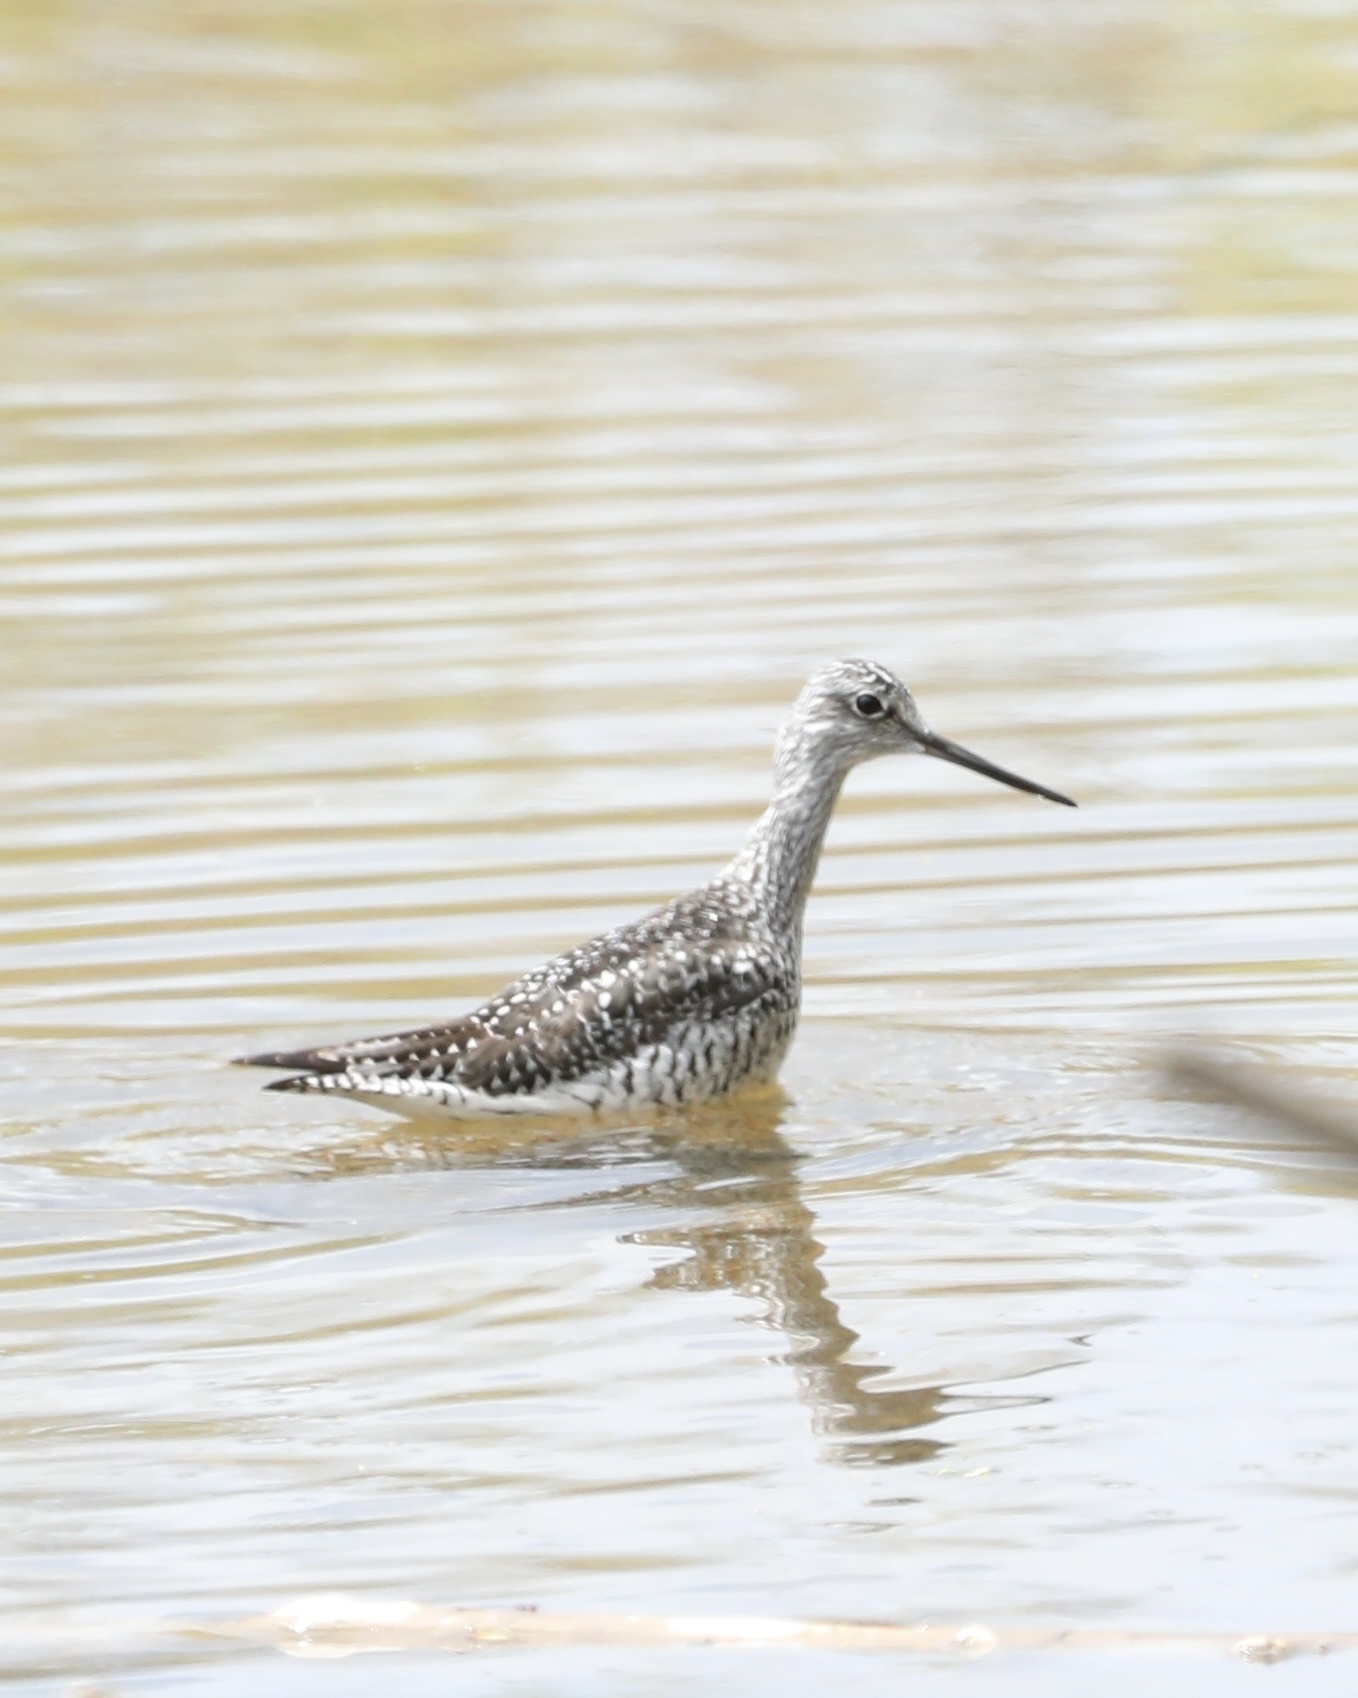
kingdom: Animalia
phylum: Chordata
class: Aves
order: Charadriiformes
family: Scolopacidae
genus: Tringa
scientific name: Tringa melanoleuca
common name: Greater yellowlegs
